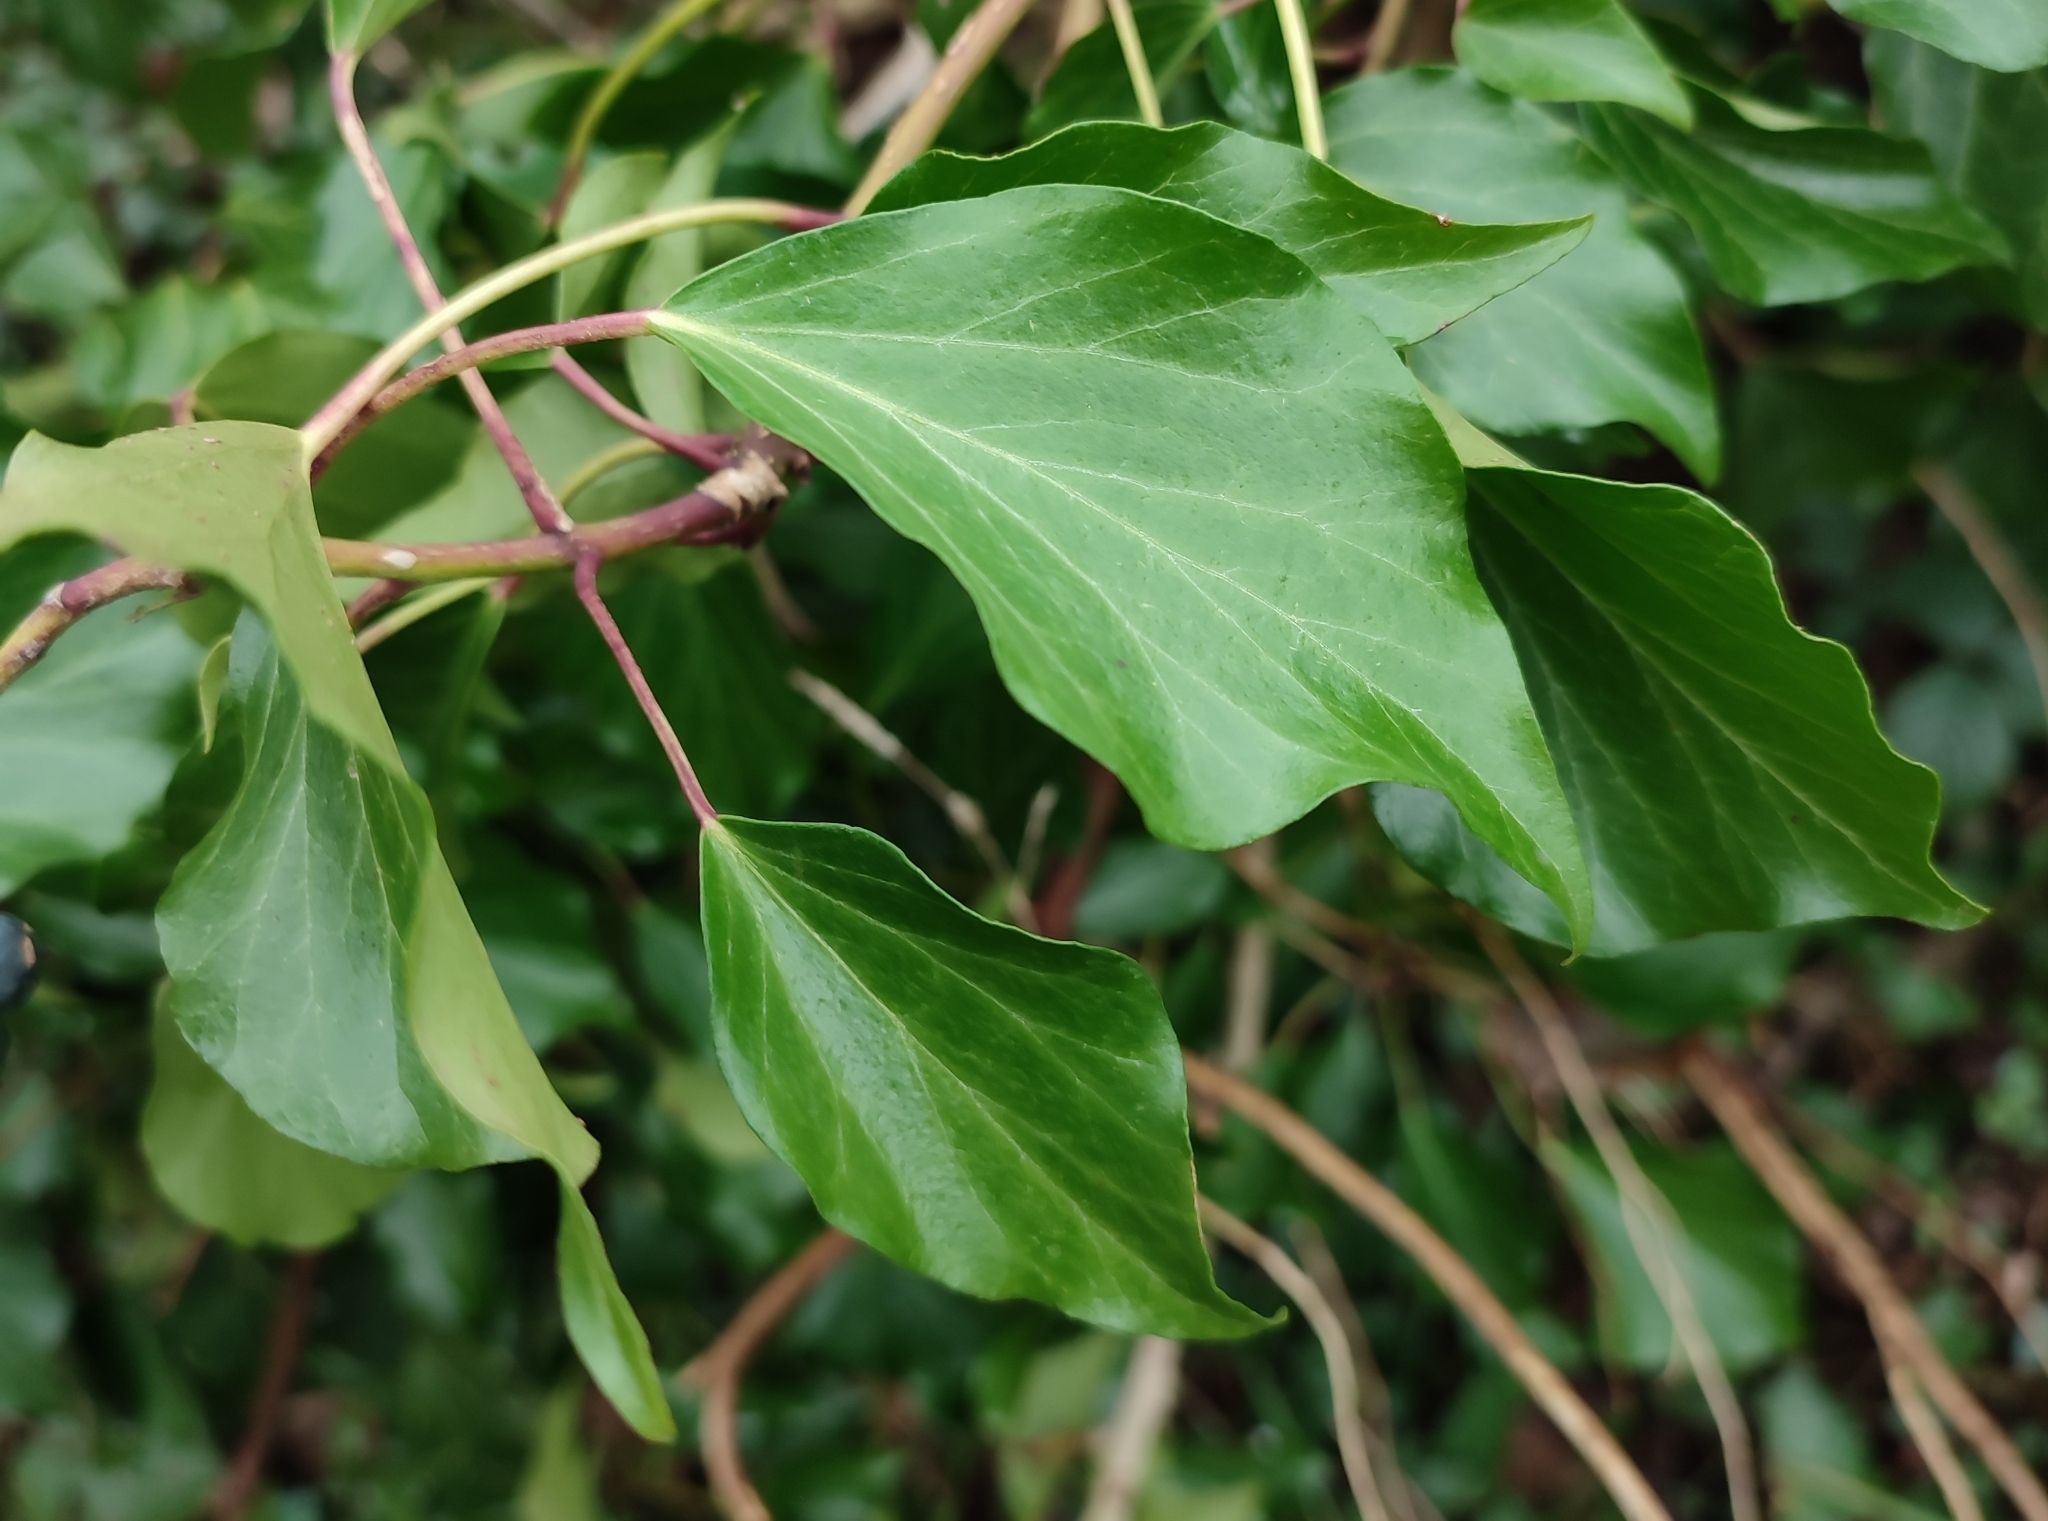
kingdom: Plantae
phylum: Tracheophyta
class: Magnoliopsida
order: Apiales
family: Araliaceae
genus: Hedera
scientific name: Hedera helix
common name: Ivy
